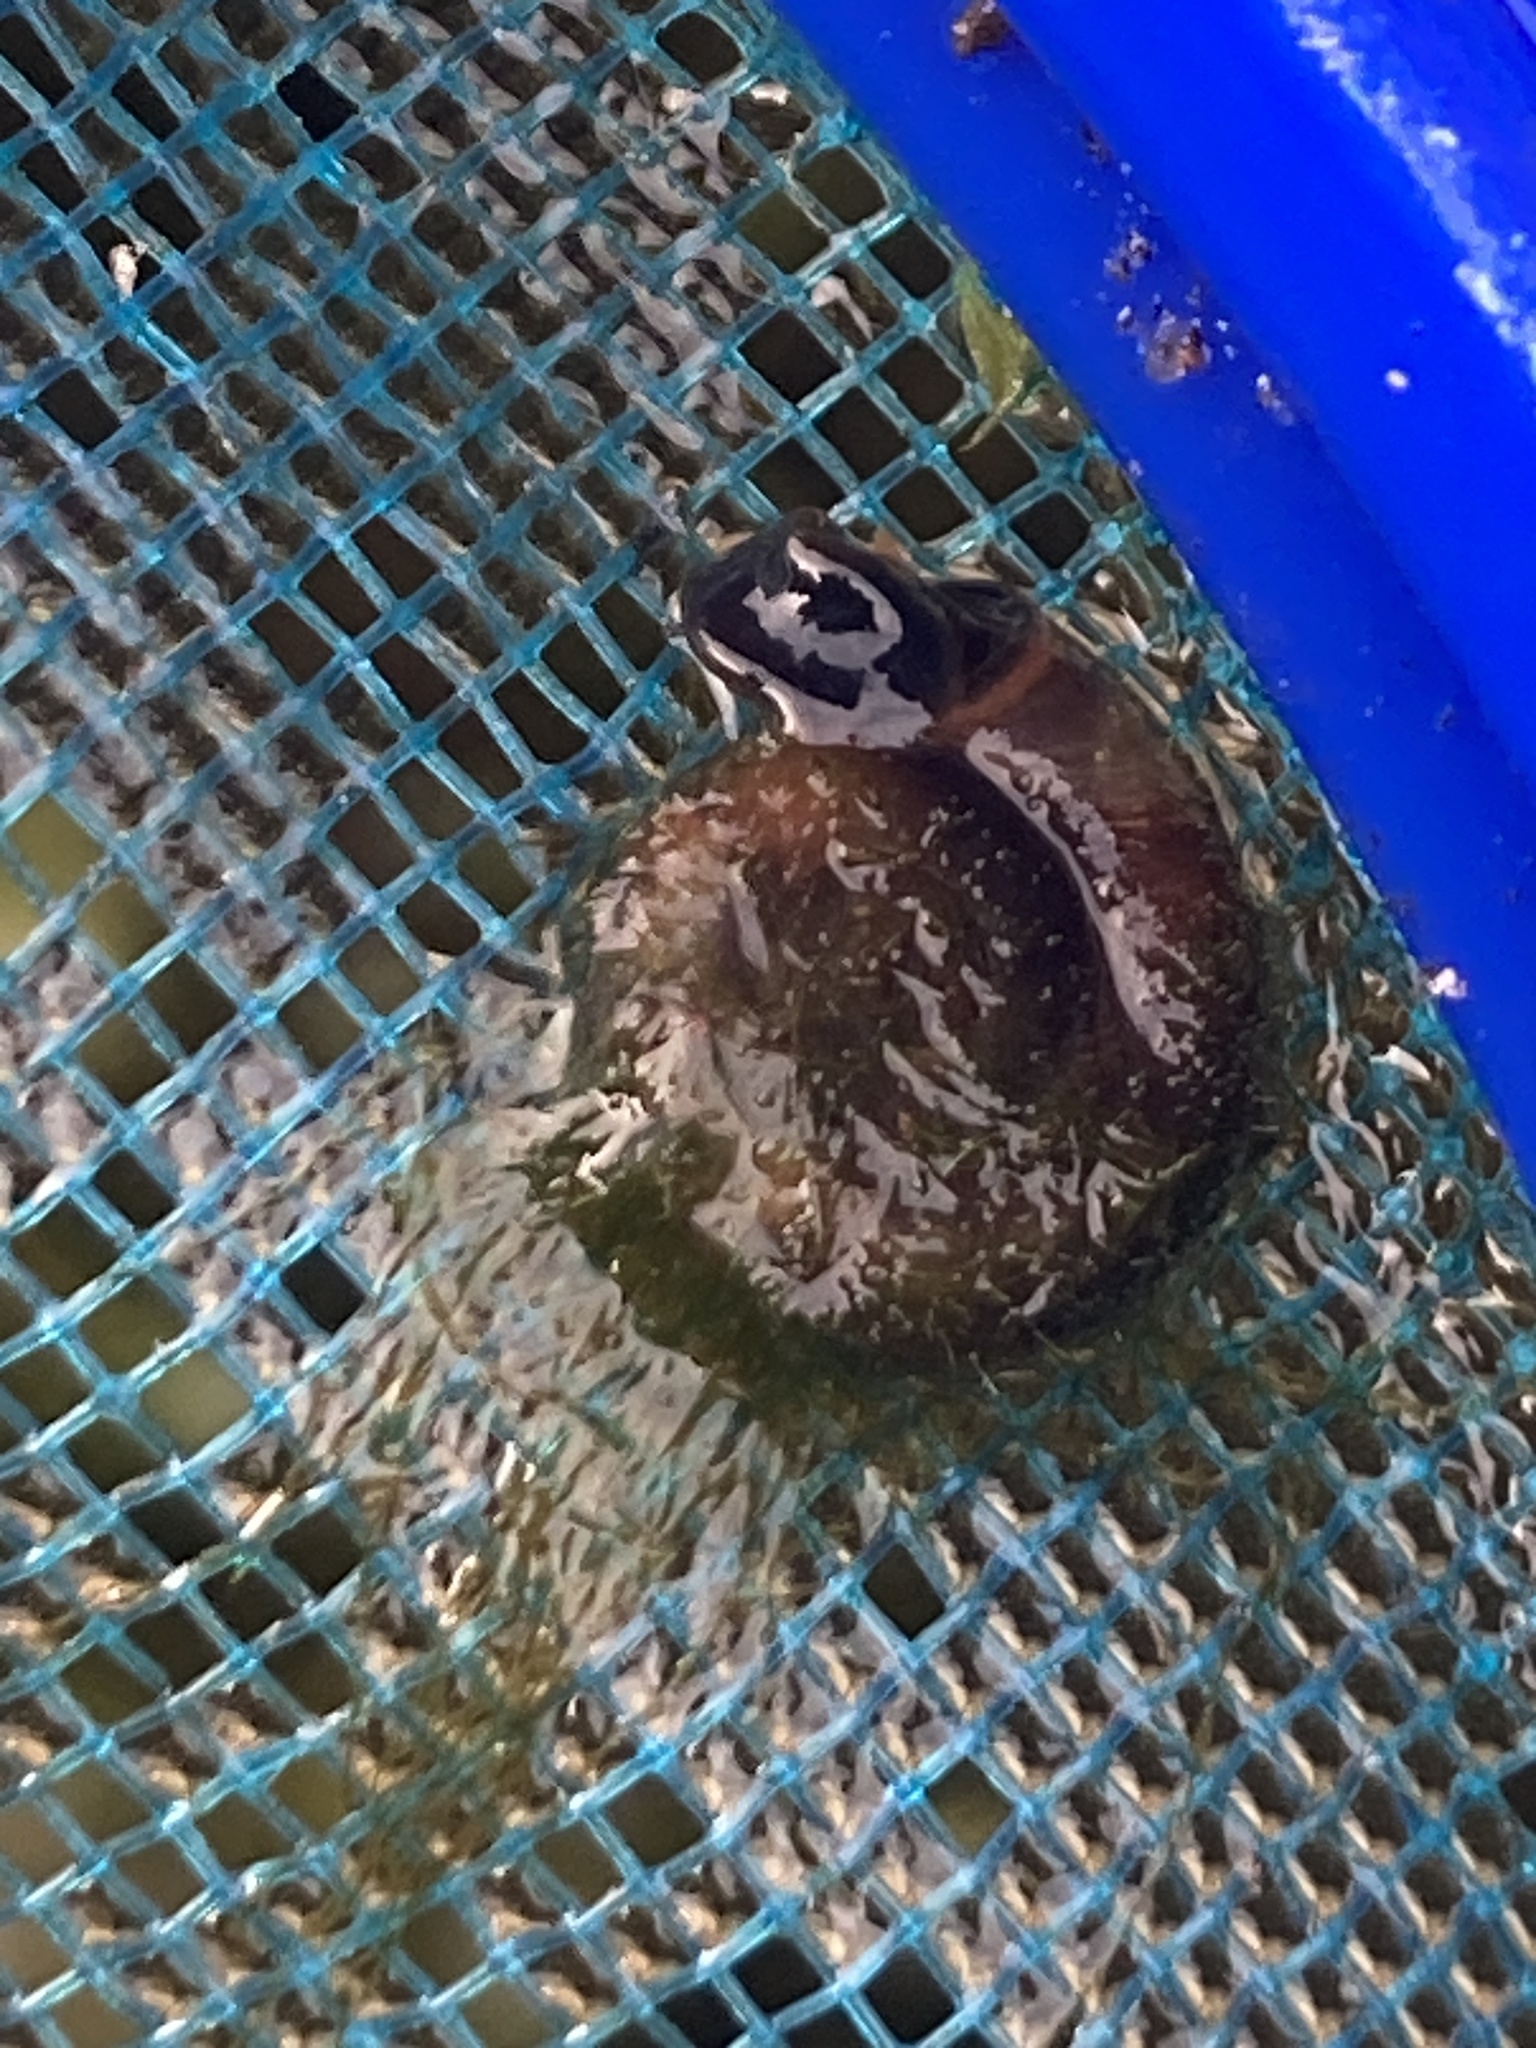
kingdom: Animalia
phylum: Mollusca
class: Gastropoda
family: Planorbidae
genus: Planorbis
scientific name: Planorbis planorbis
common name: Margined ramshorn
